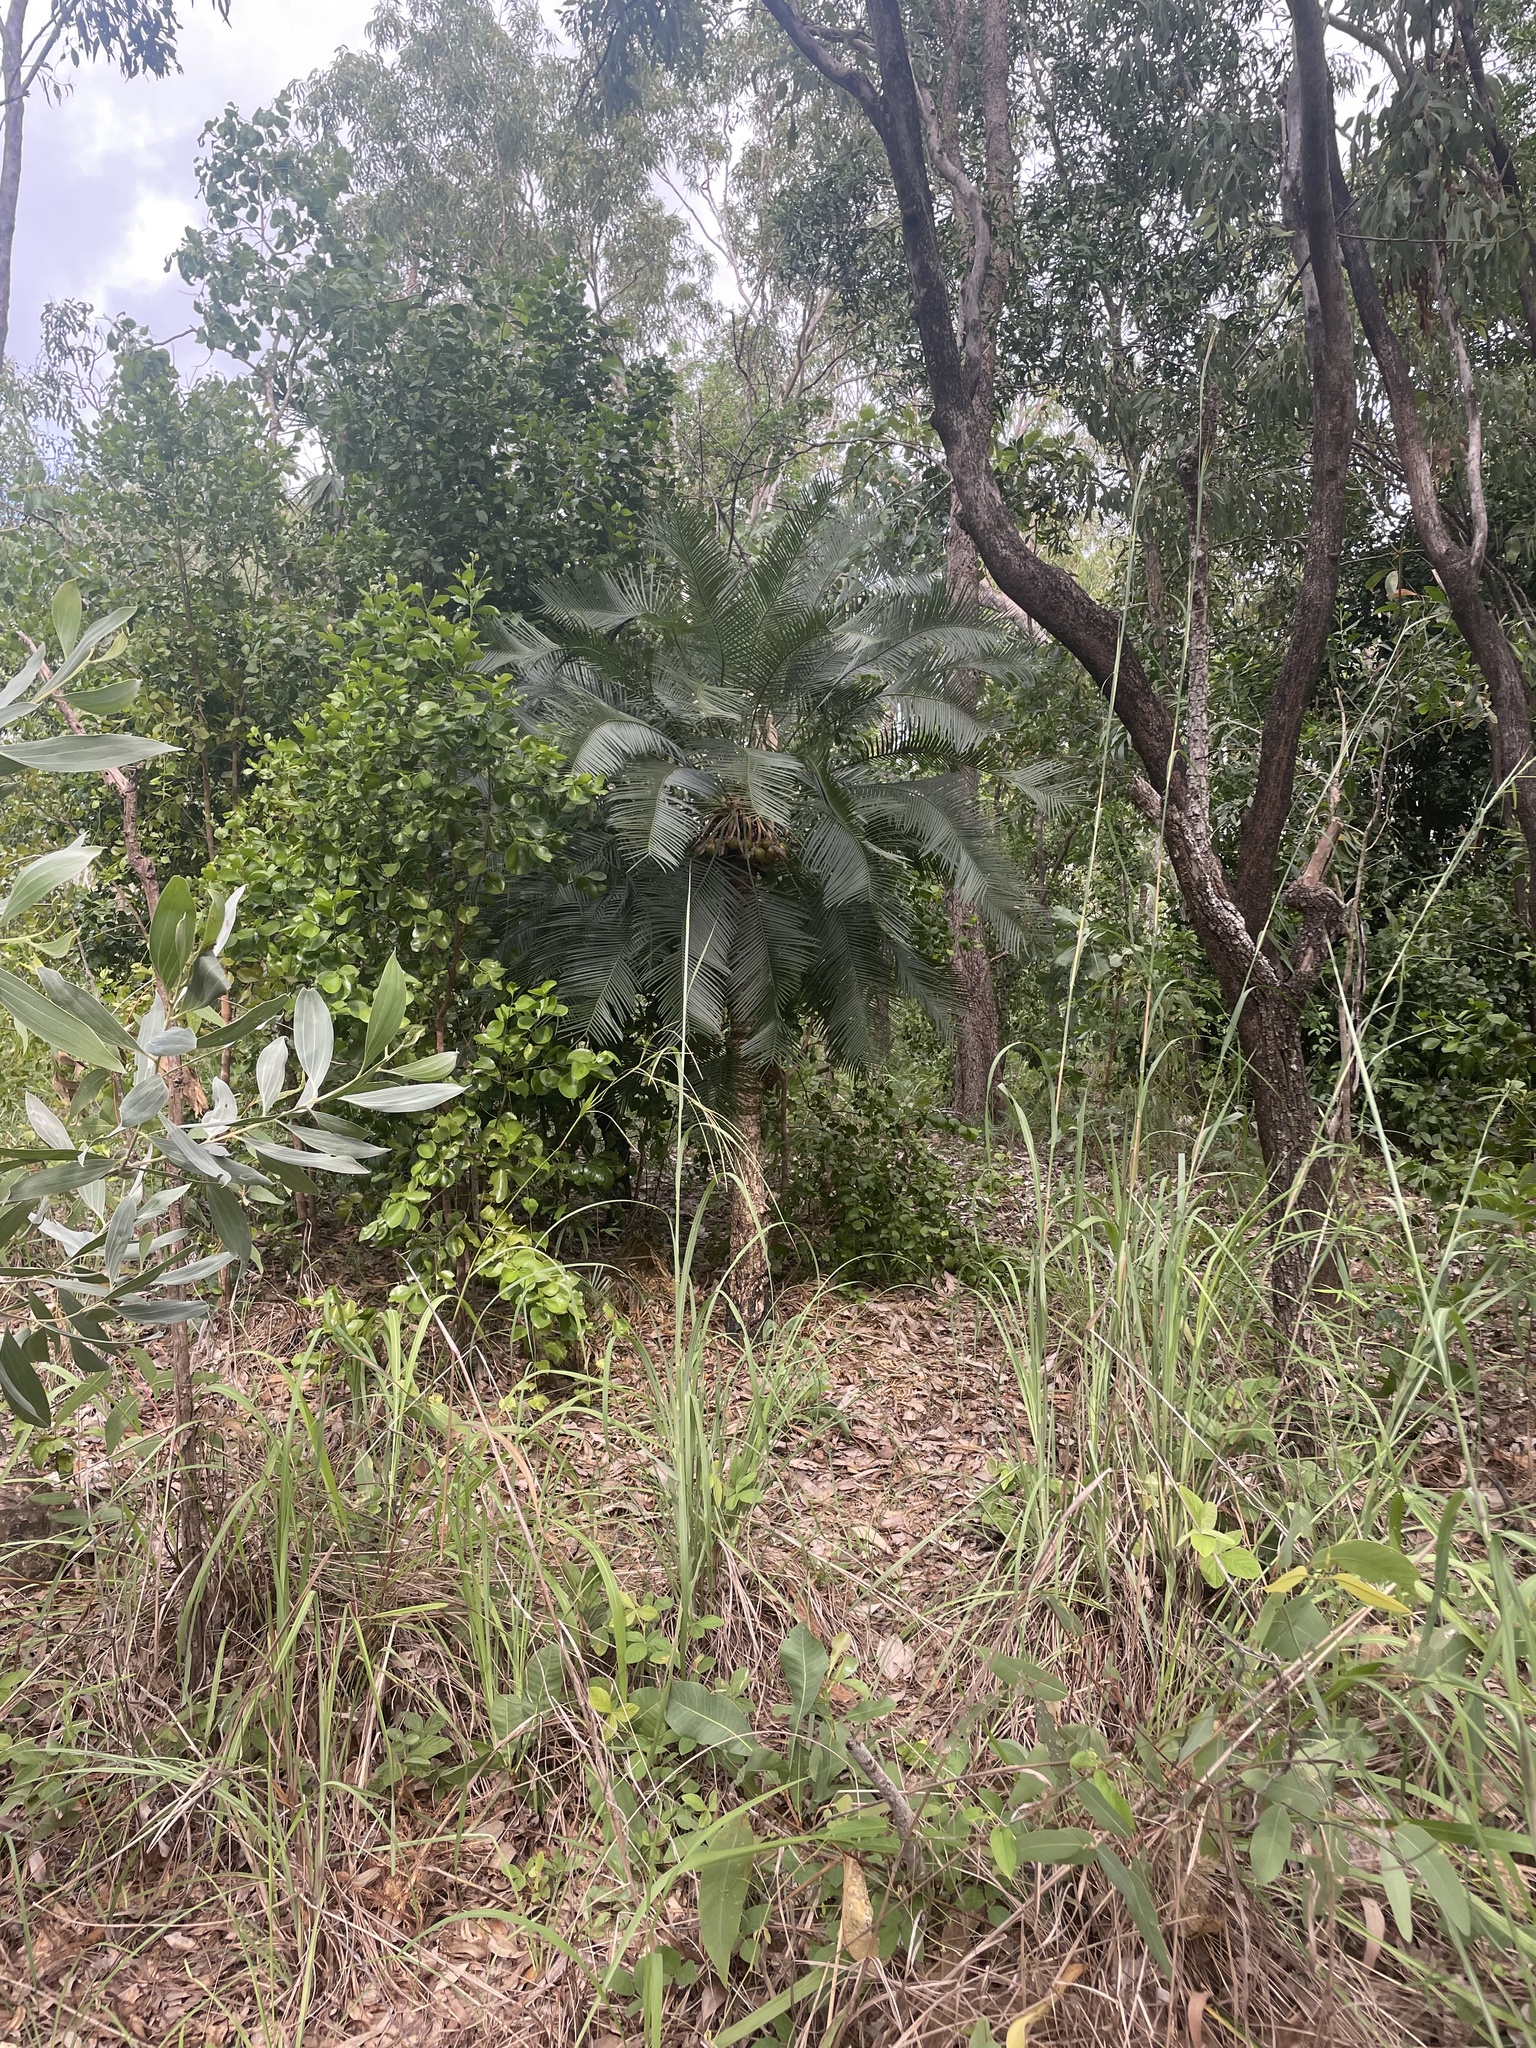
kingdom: Plantae
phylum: Tracheophyta
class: Cycadopsida
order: Cycadales
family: Cycadaceae
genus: Cycas
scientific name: Cycas armstrongii
